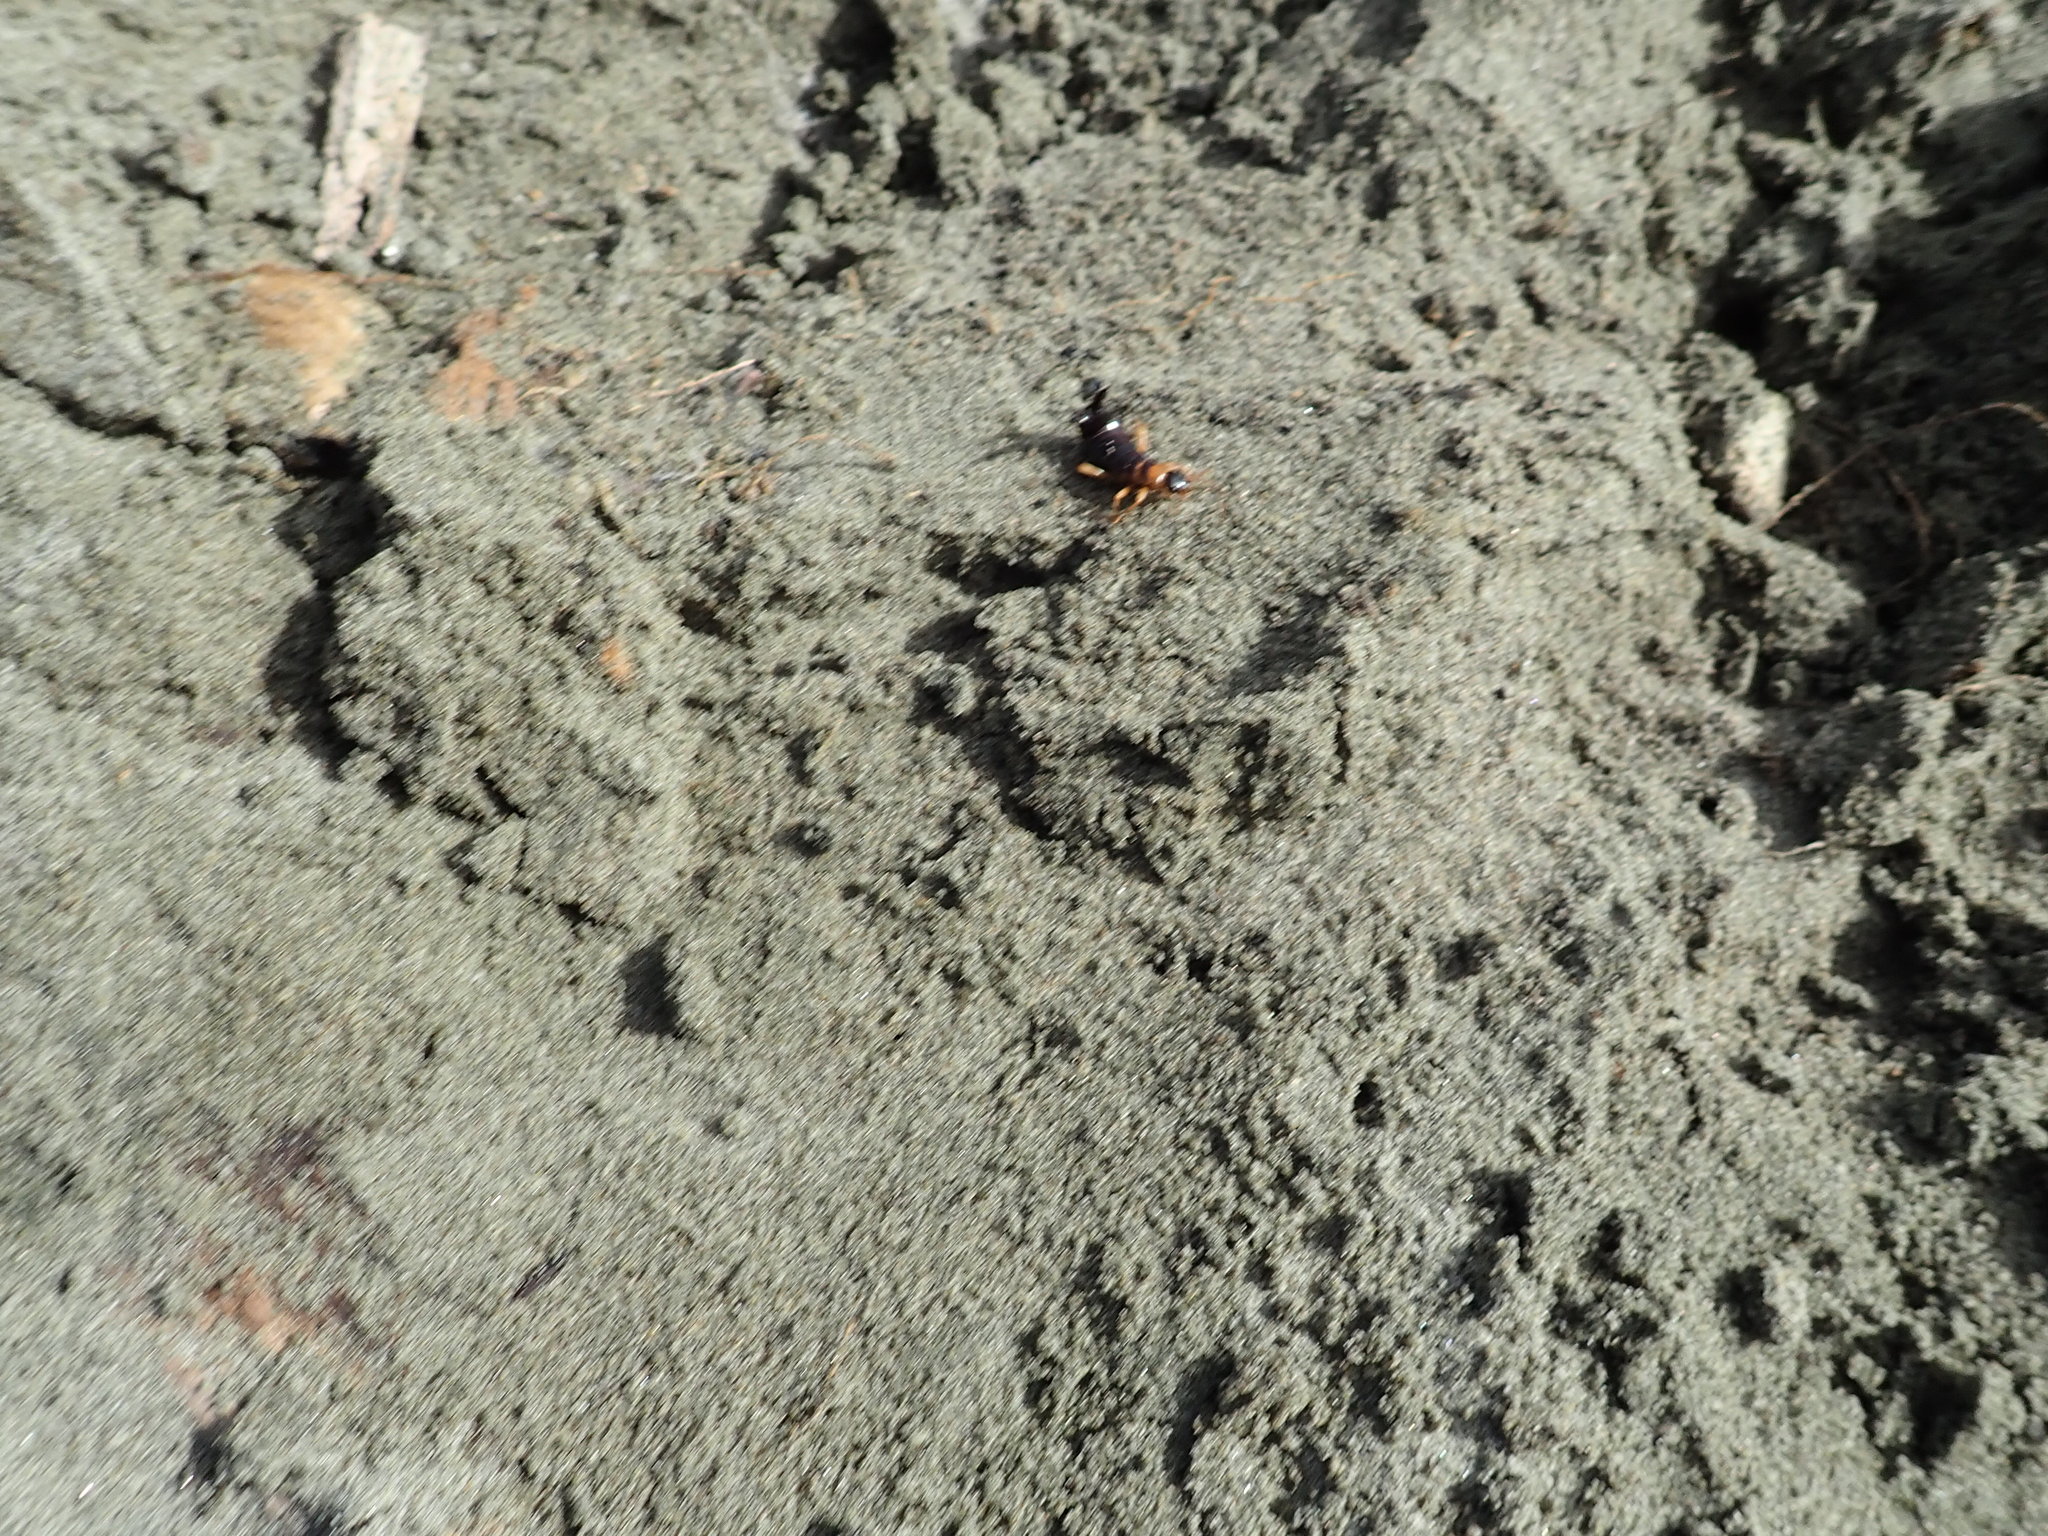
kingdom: Animalia
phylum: Arthropoda
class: Insecta
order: Dermaptera
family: Anisolabididae
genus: Anisolabis
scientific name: Anisolabis littorea
